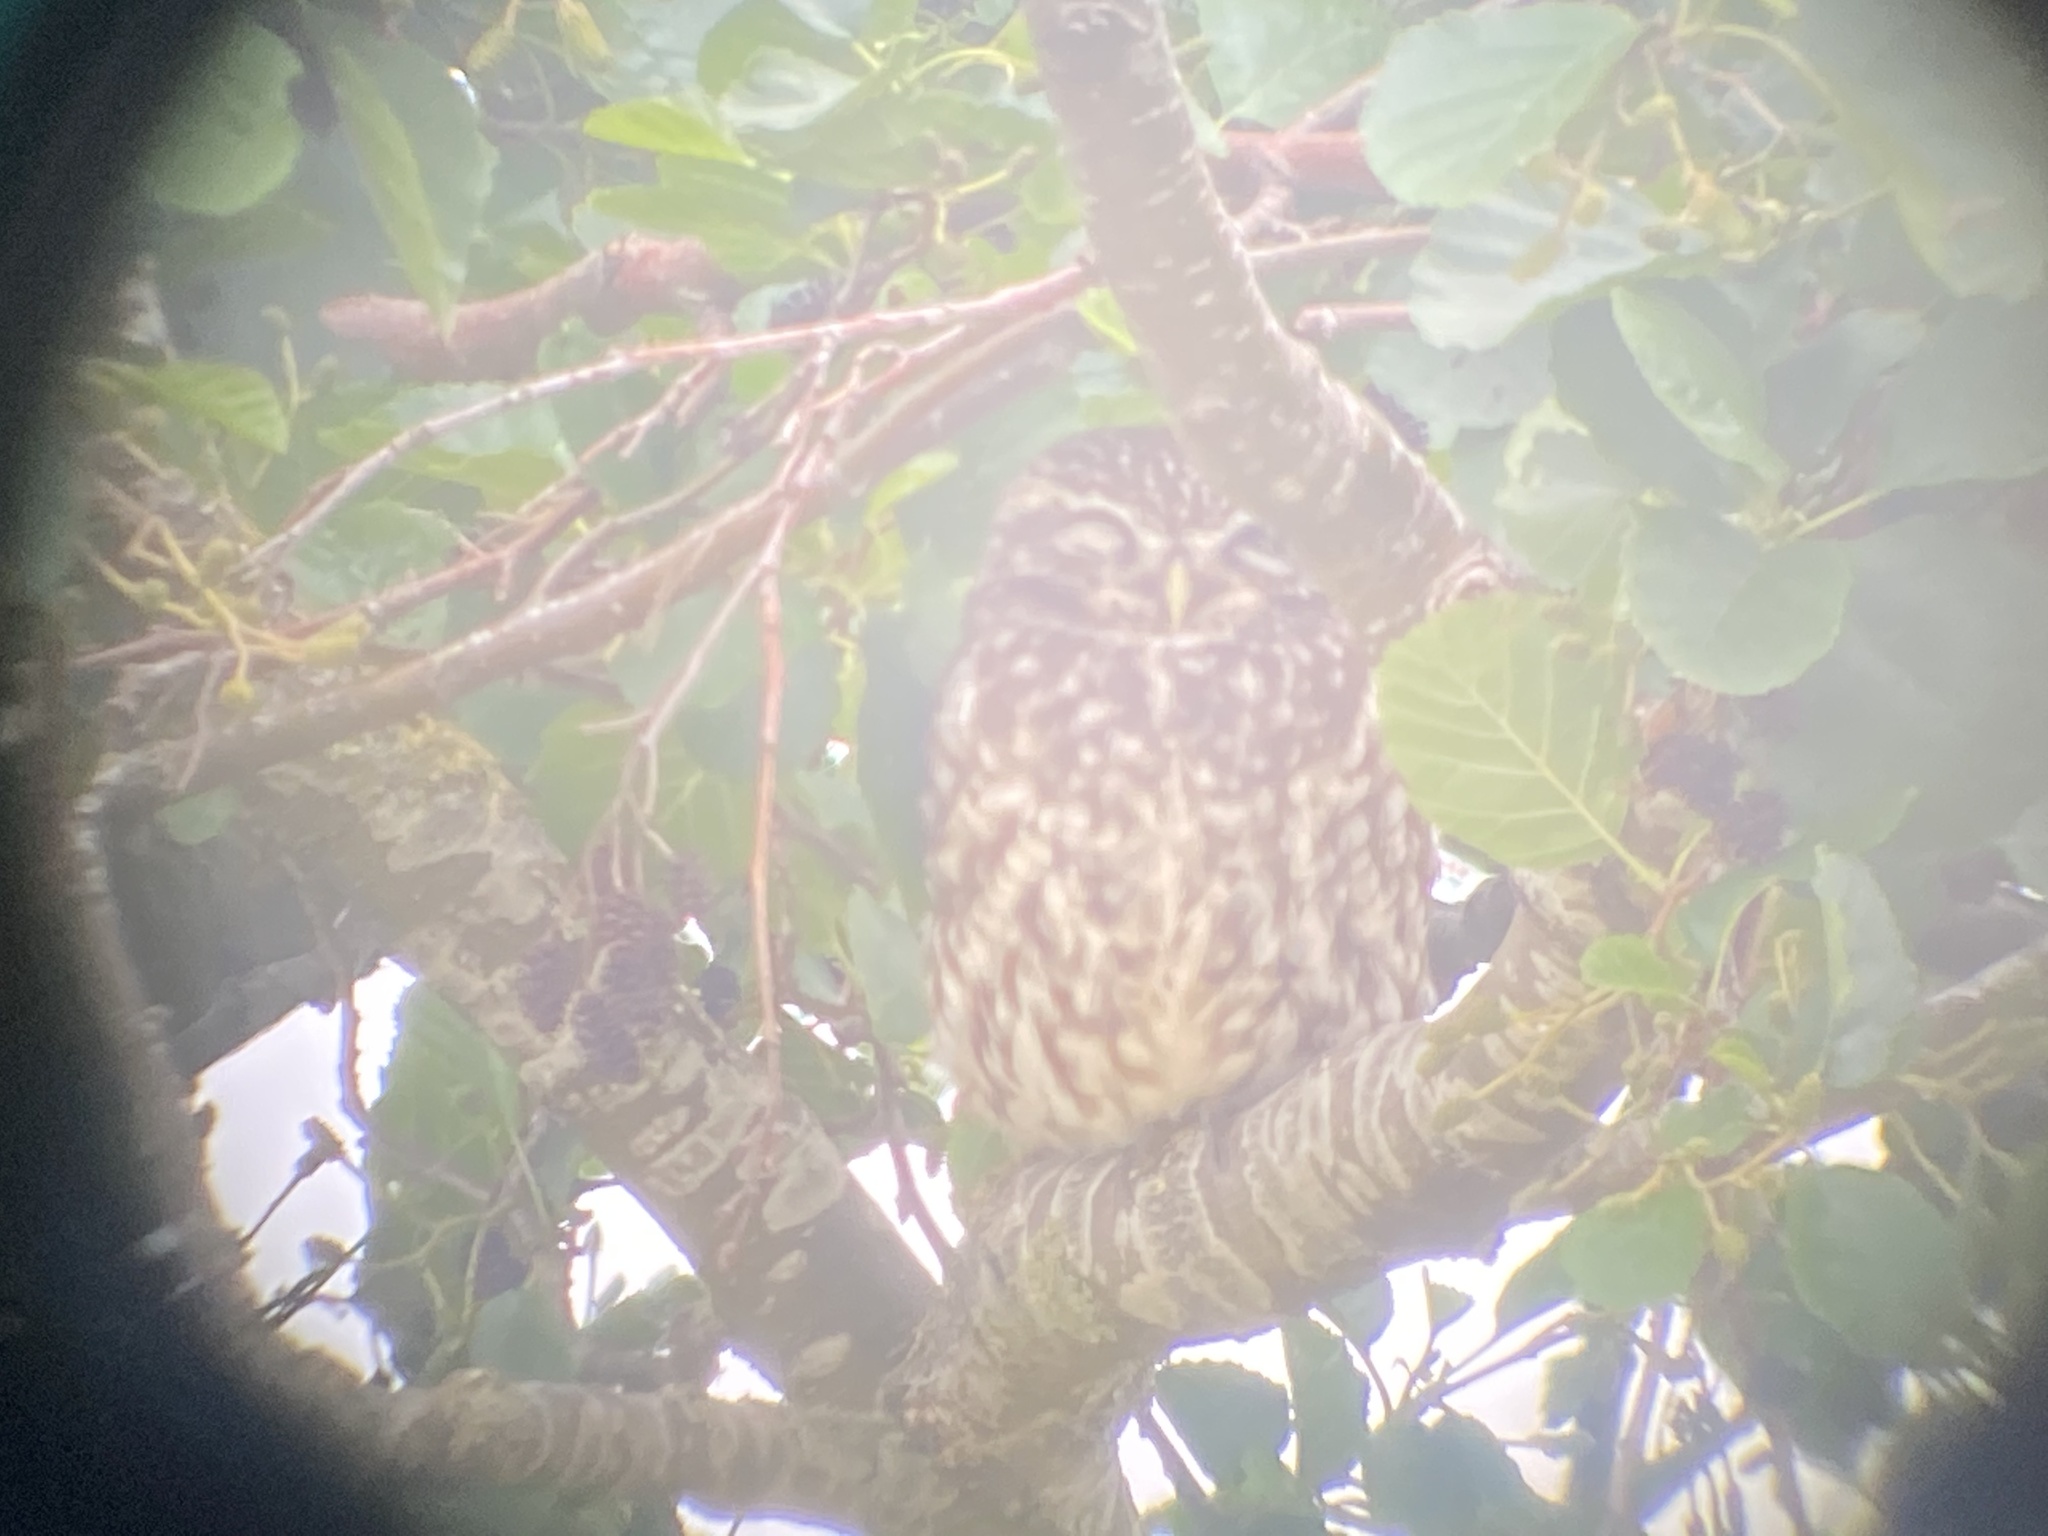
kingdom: Animalia
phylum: Chordata
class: Aves
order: Strigiformes
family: Strigidae
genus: Athene
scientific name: Athene noctua
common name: Little owl
